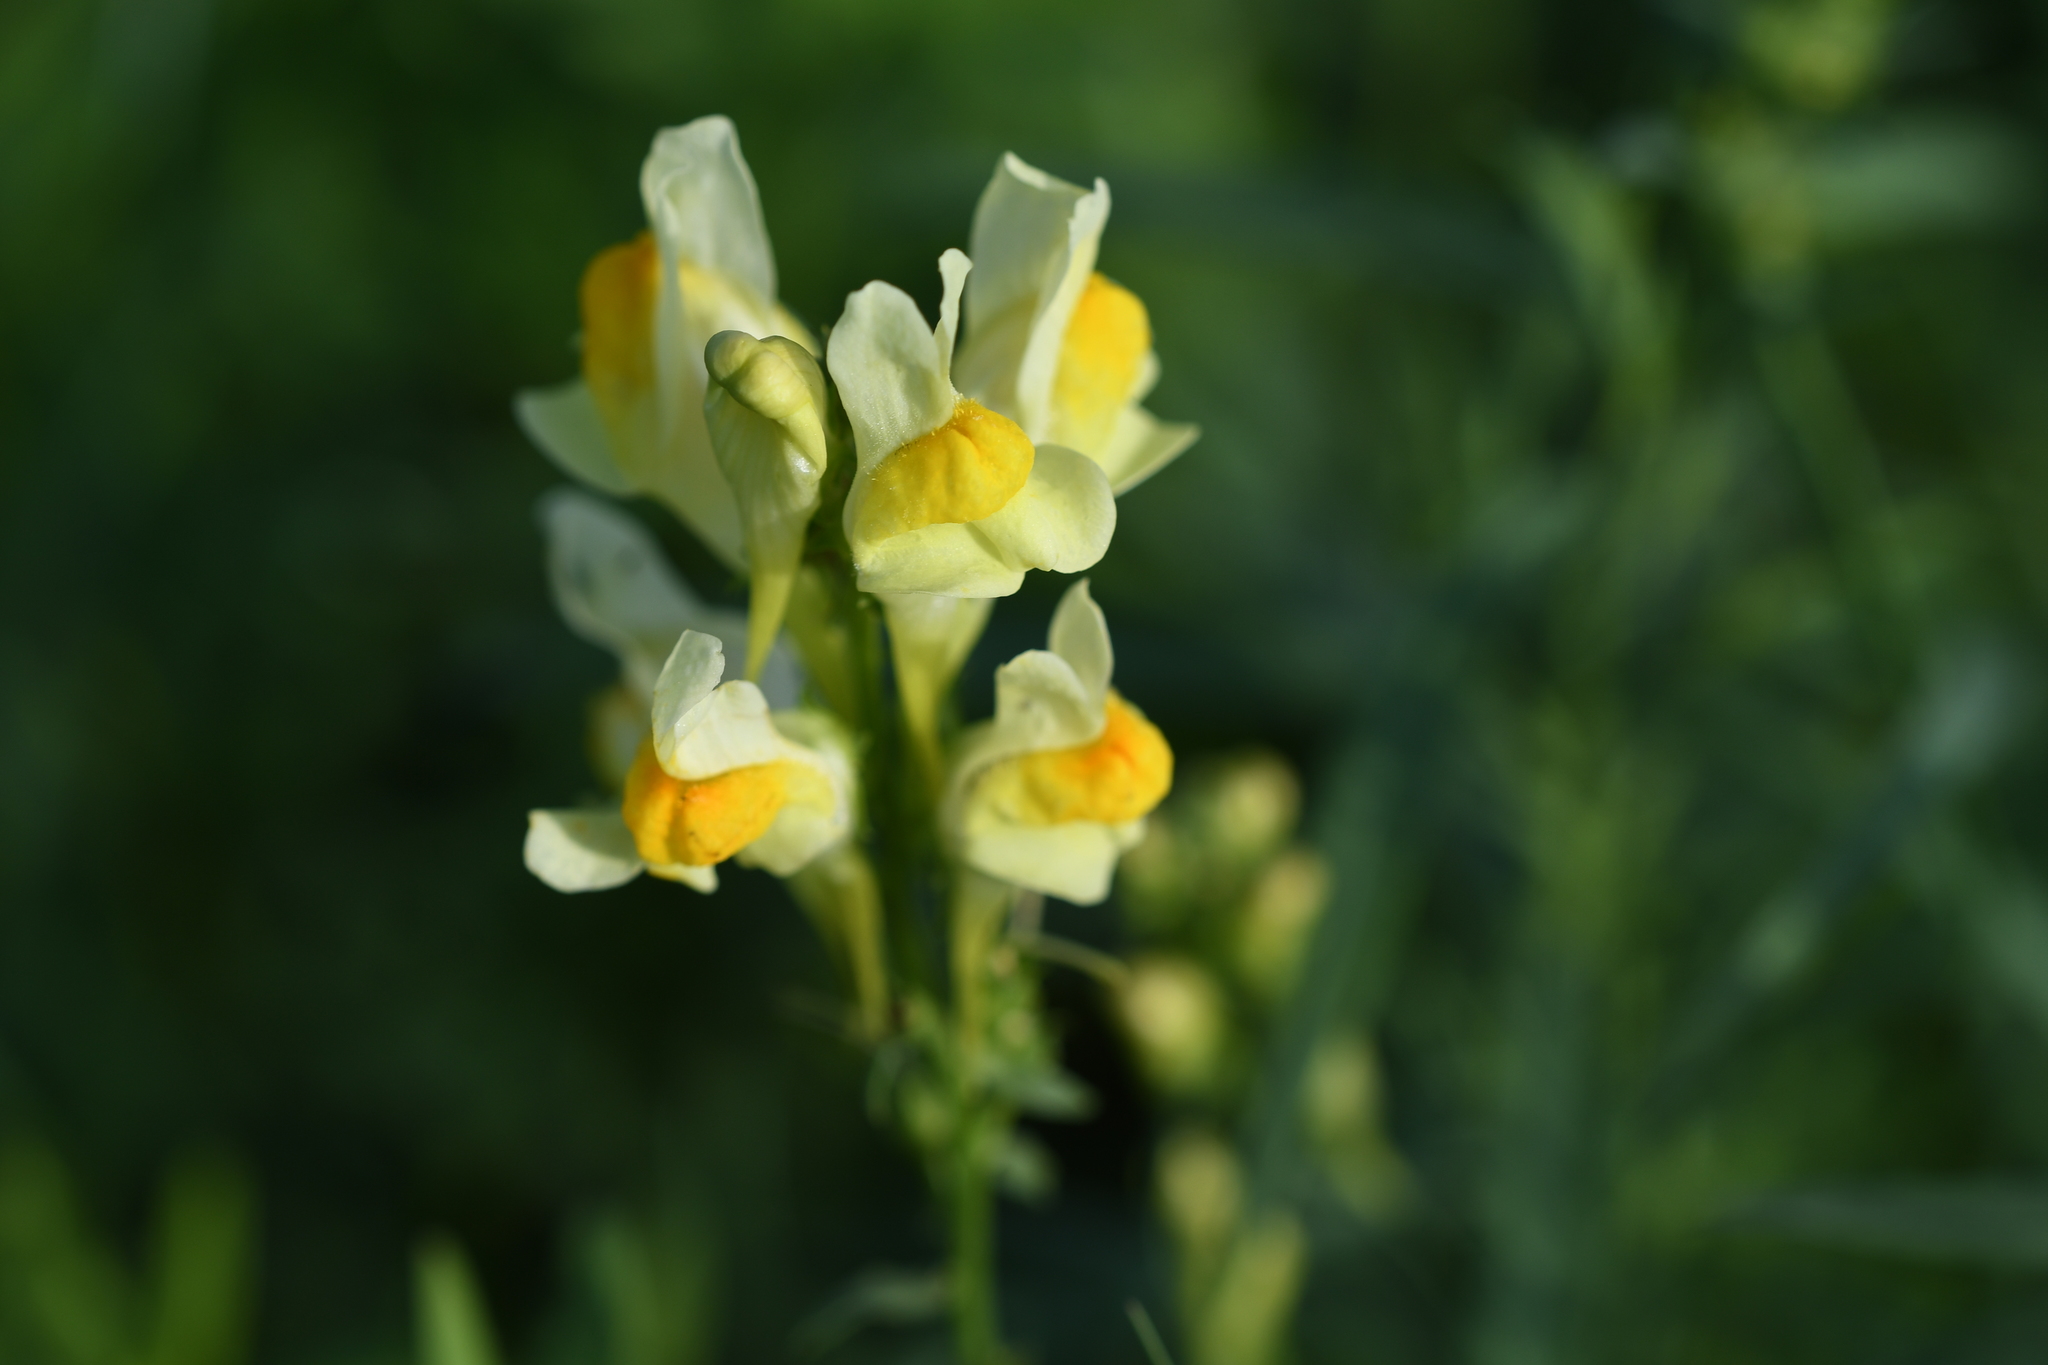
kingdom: Plantae
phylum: Tracheophyta
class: Magnoliopsida
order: Lamiales
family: Plantaginaceae
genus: Linaria
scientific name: Linaria vulgaris
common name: Butter and eggs
